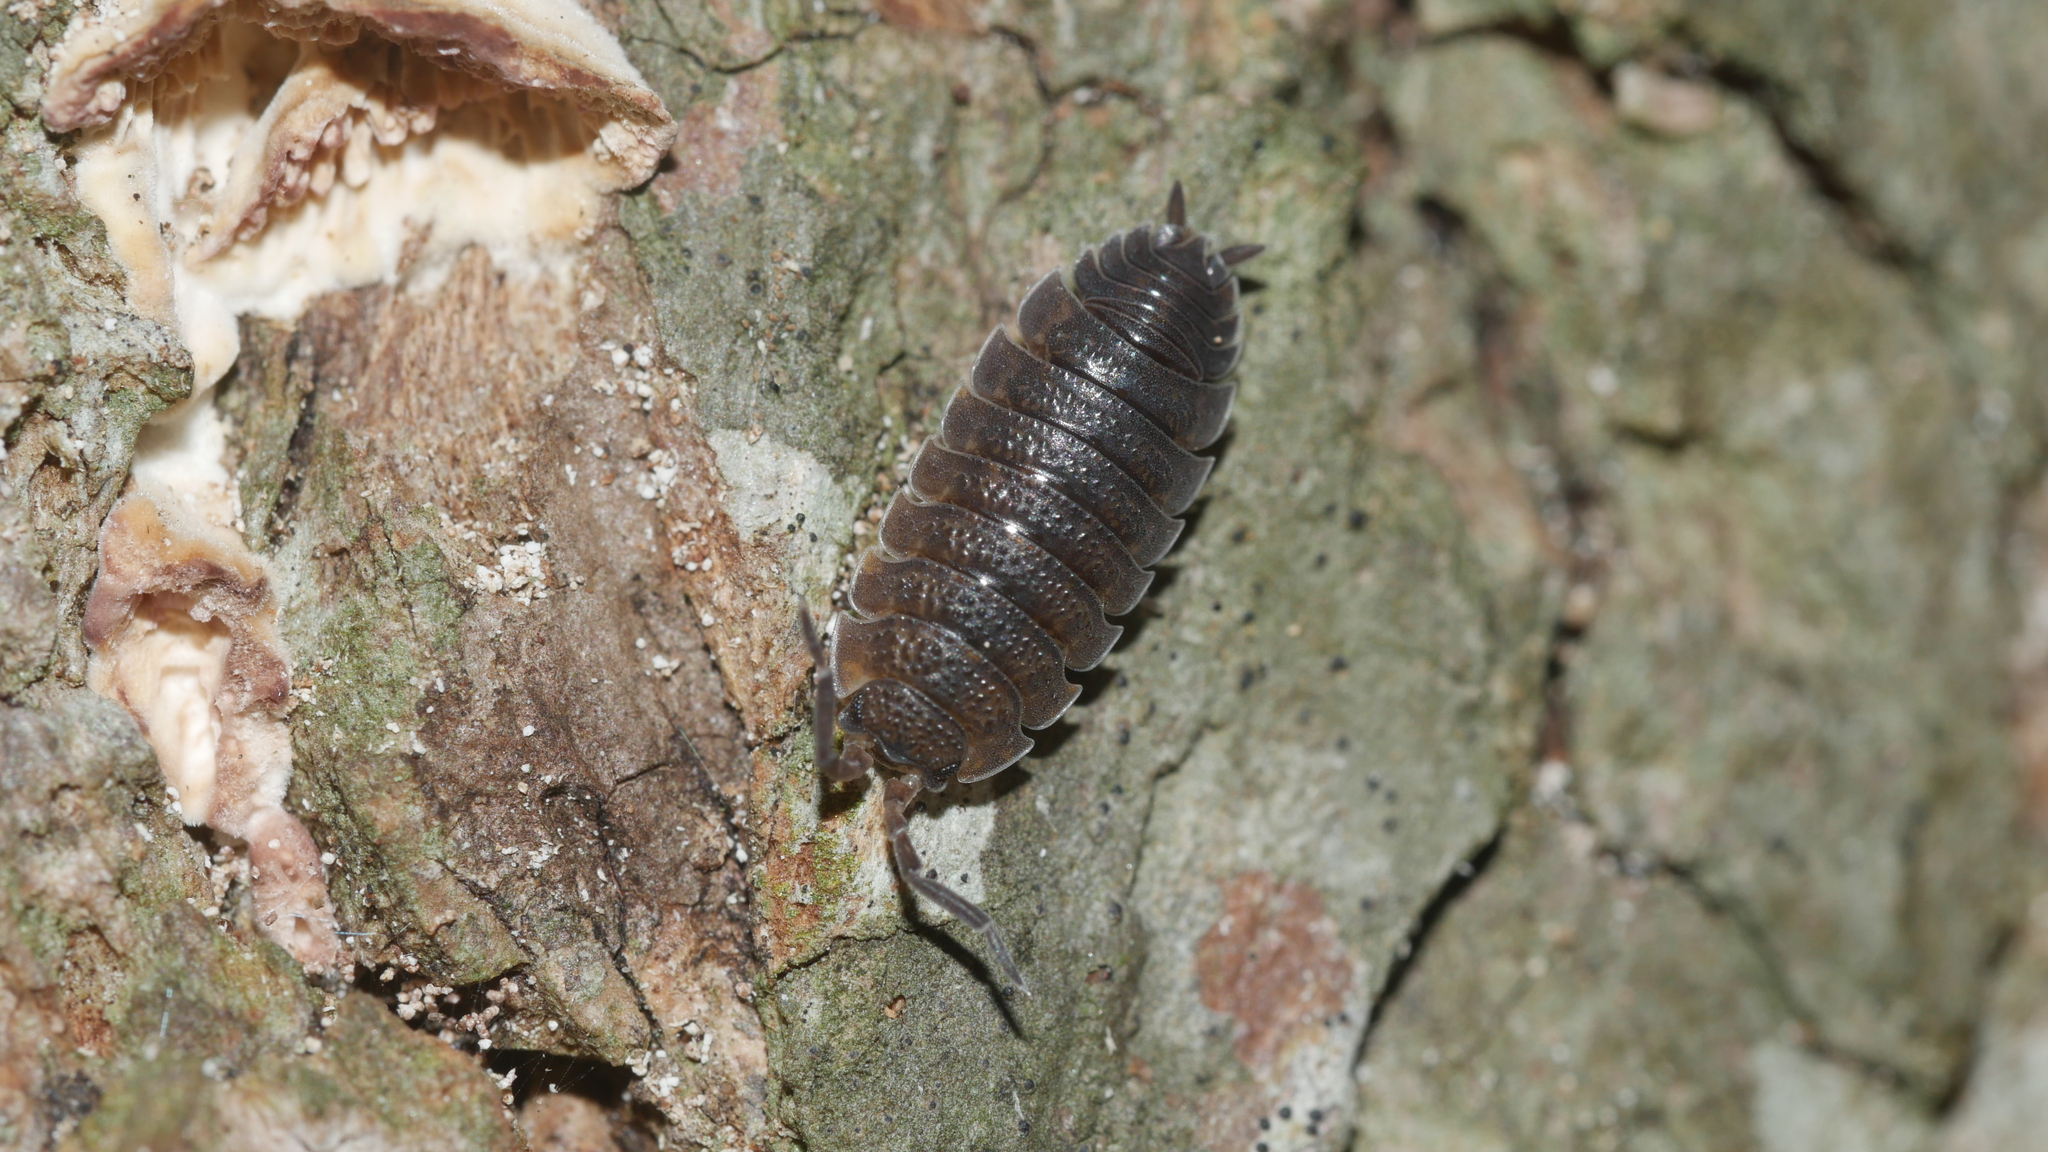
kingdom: Animalia
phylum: Arthropoda
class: Malacostraca
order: Isopoda
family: Porcellionidae
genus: Porcellio
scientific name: Porcellio scaber
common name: Common rough woodlouse
